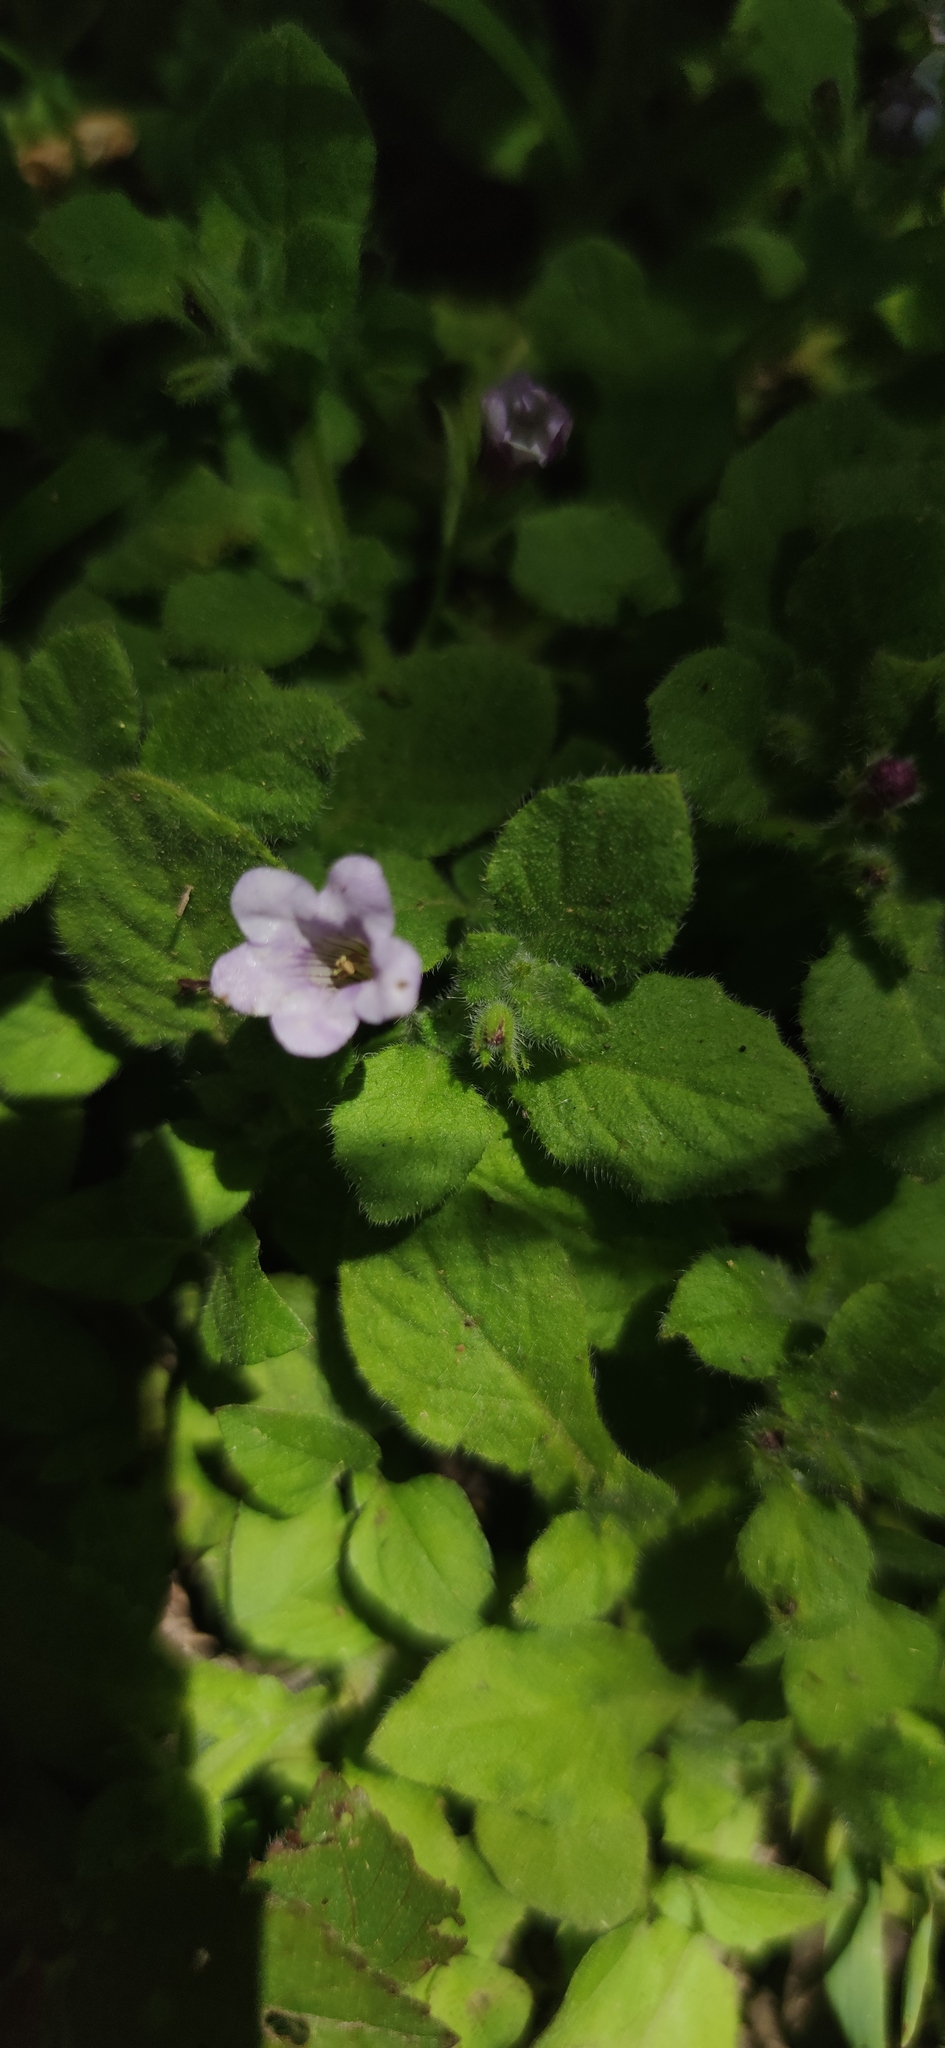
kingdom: Plantae
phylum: Tracheophyta
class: Magnoliopsida
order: Boraginales
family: Namaceae
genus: Nama
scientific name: Nama jamaicensis
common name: Jamaicanweed
